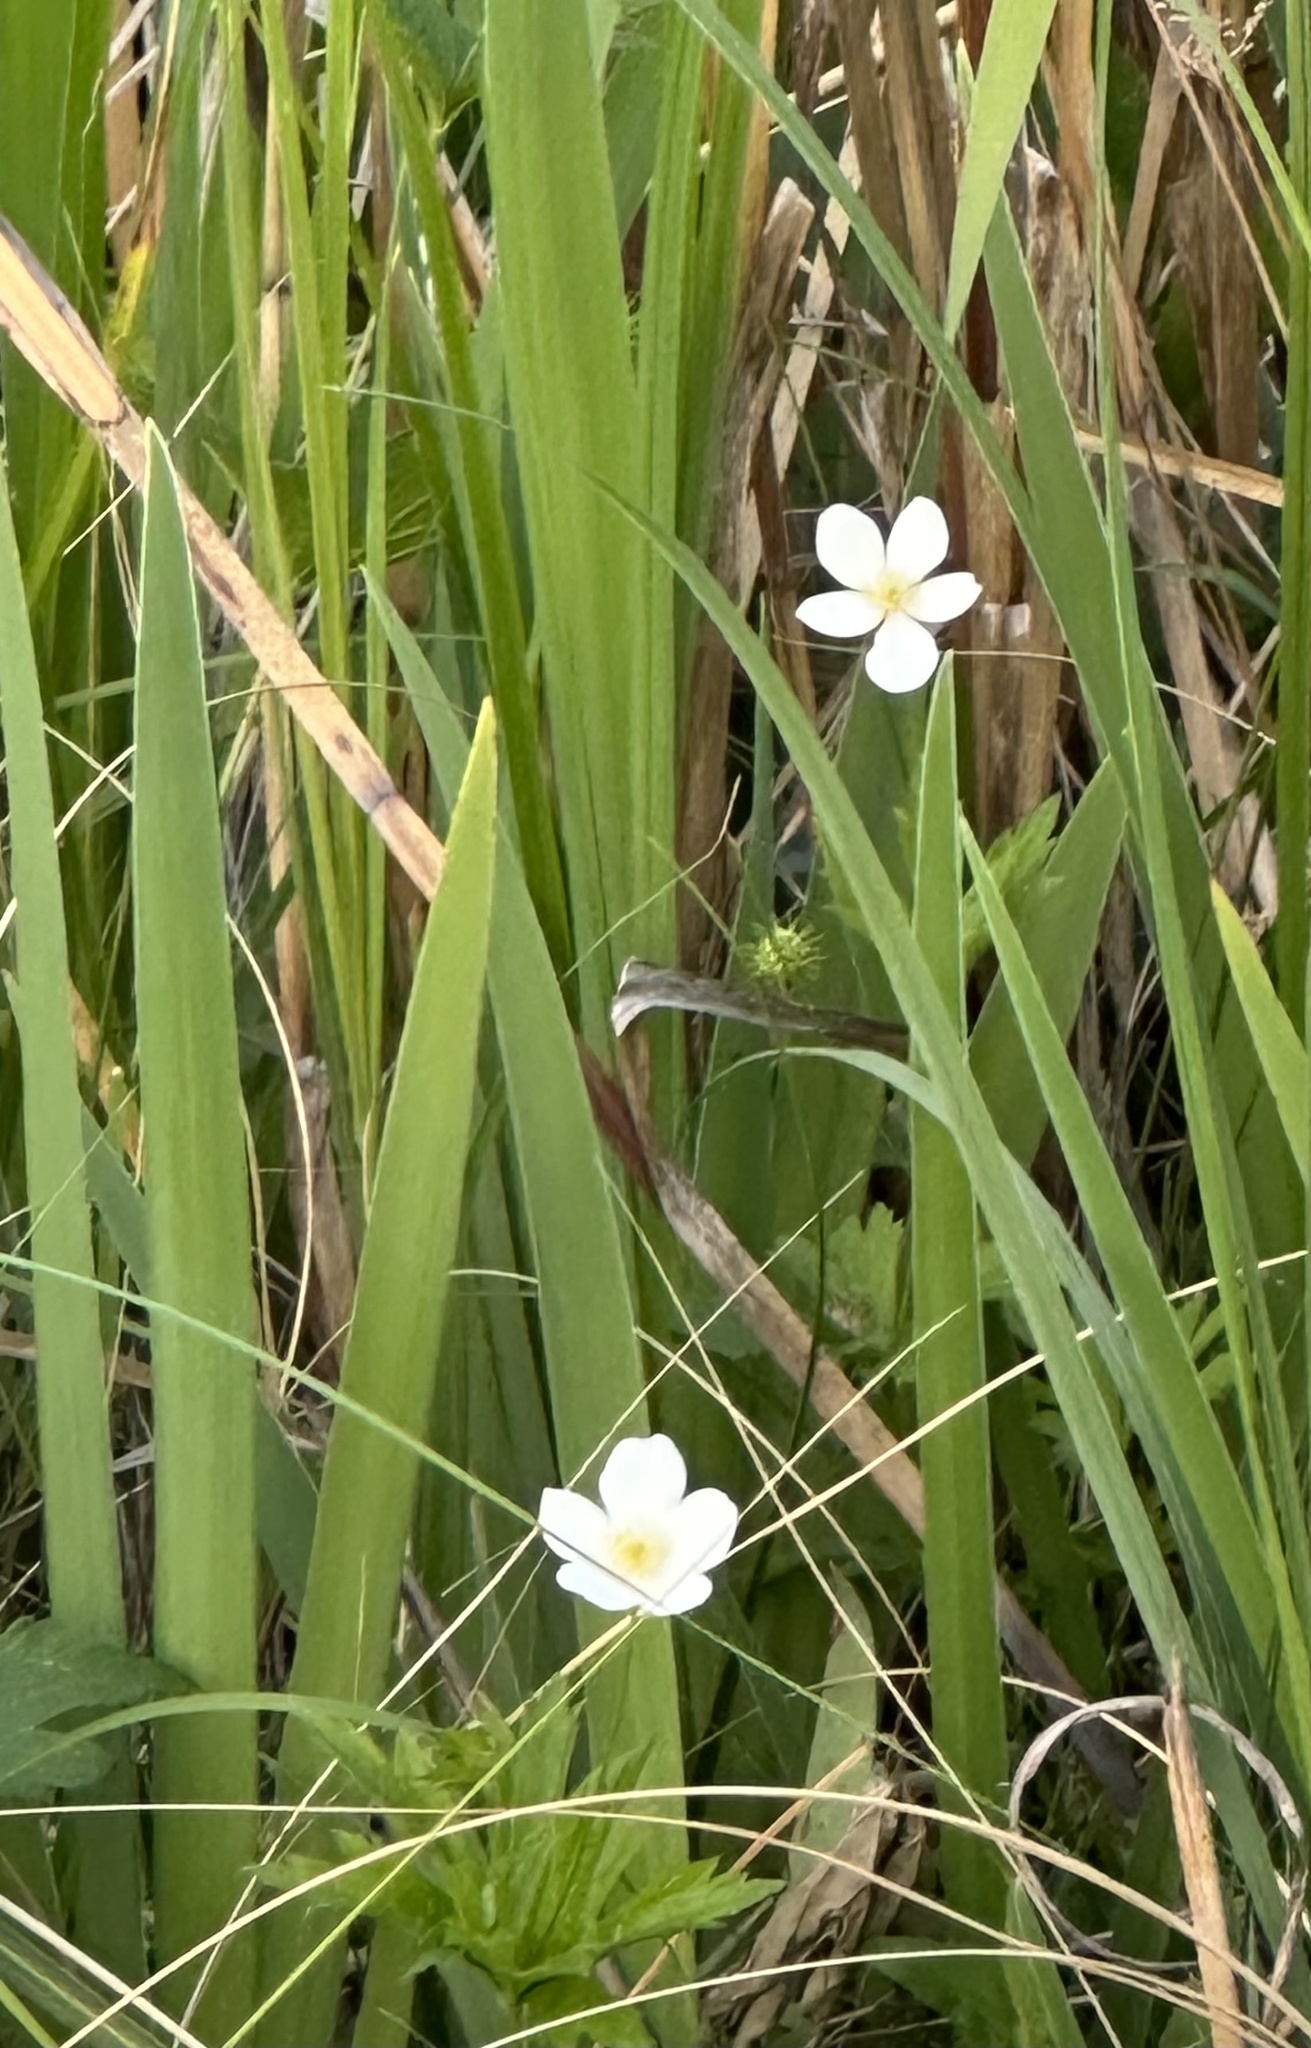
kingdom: Plantae
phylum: Tracheophyta
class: Magnoliopsida
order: Ranunculales
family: Ranunculaceae
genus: Anemonastrum
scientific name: Anemonastrum canadense
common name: Canada anemone
